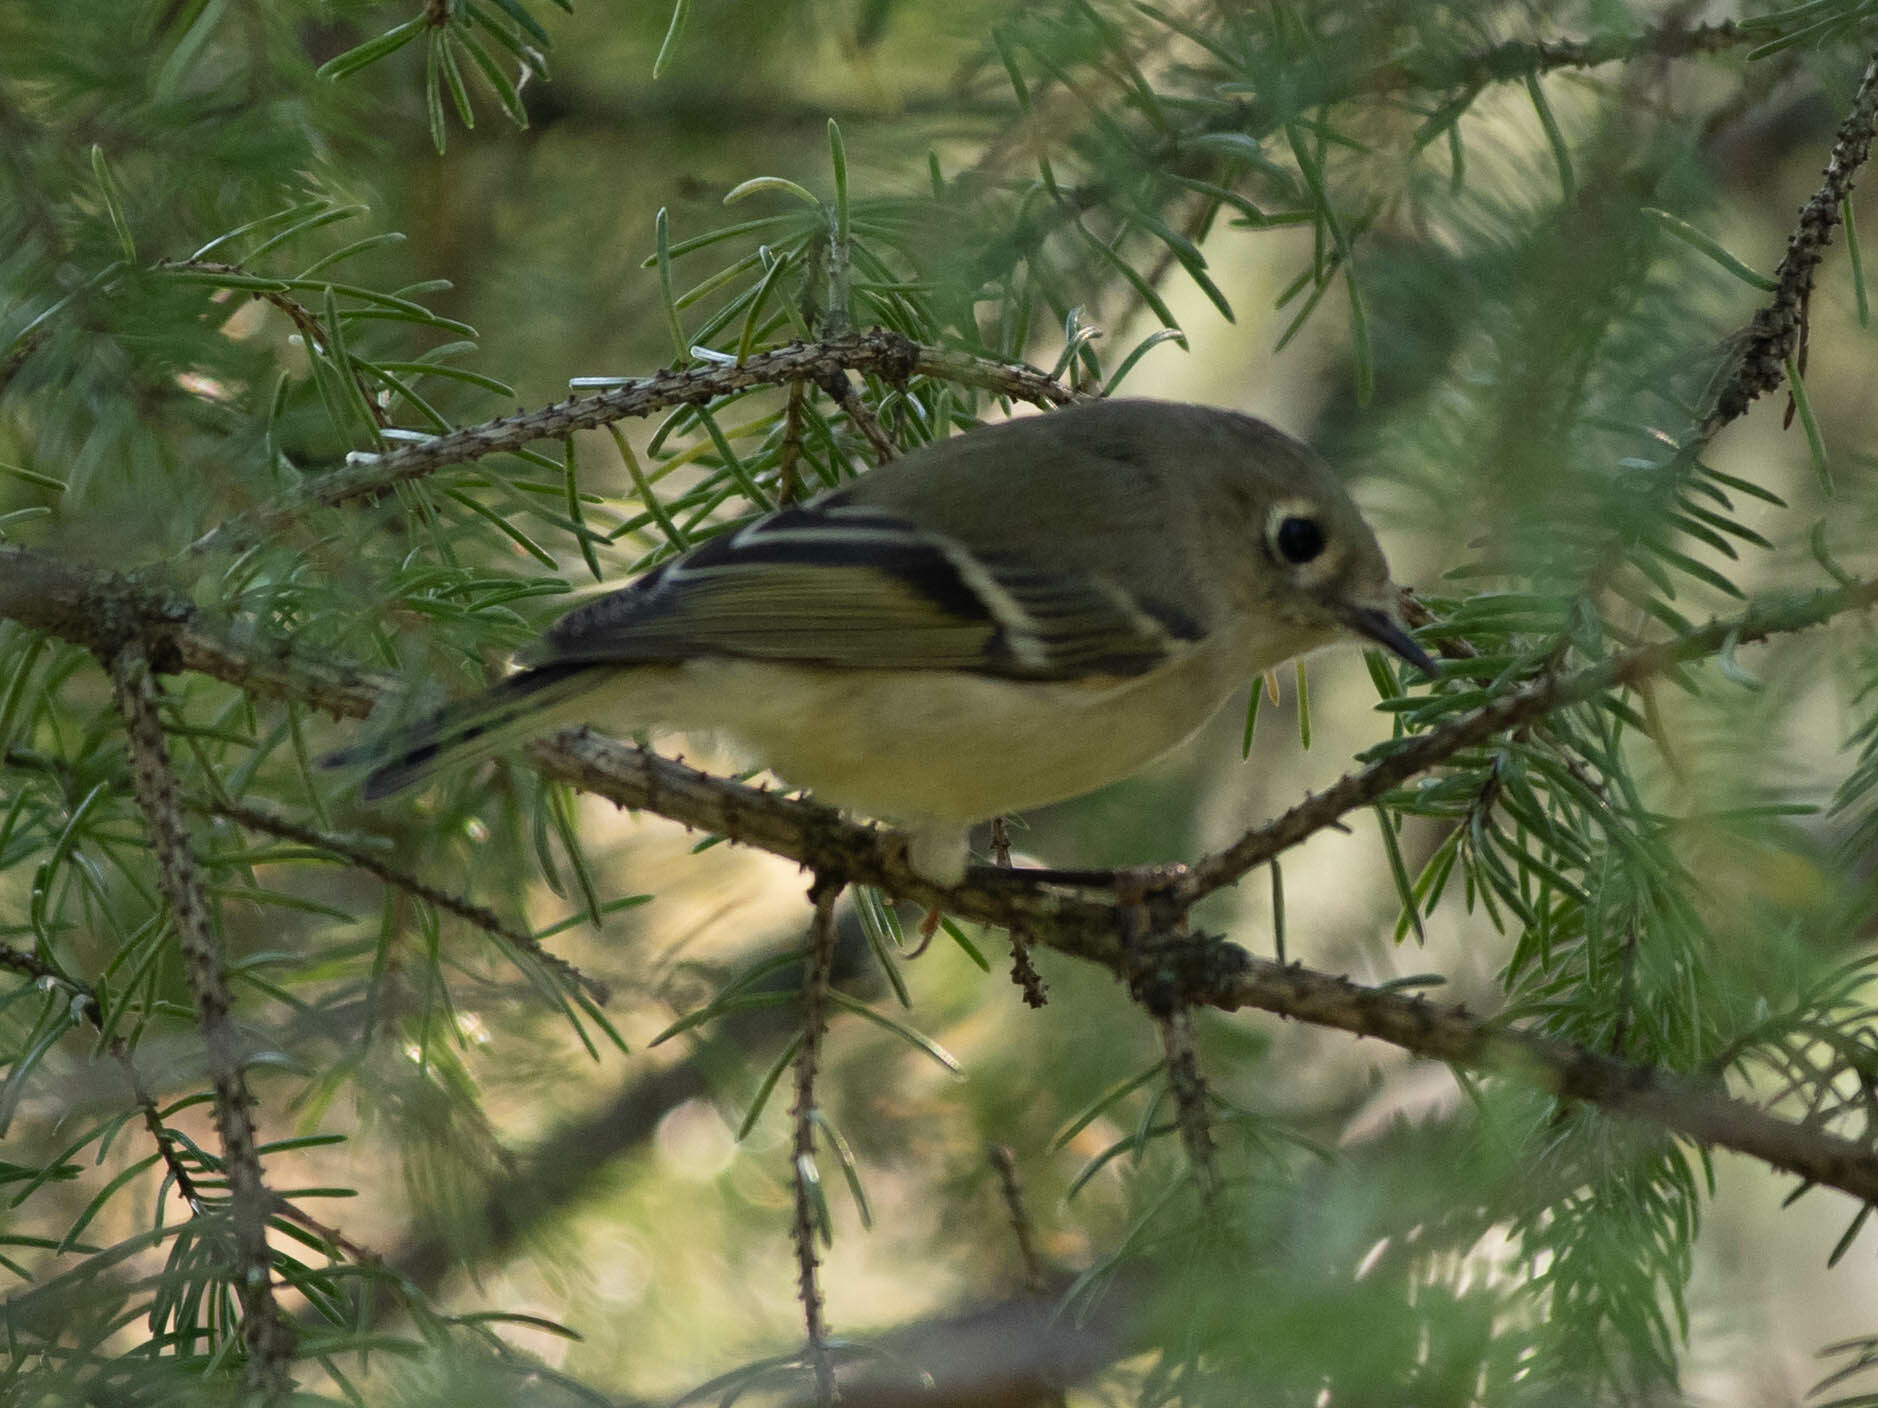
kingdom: Animalia
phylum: Chordata
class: Aves
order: Passeriformes
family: Regulidae
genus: Regulus
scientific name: Regulus calendula
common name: Ruby-crowned kinglet
